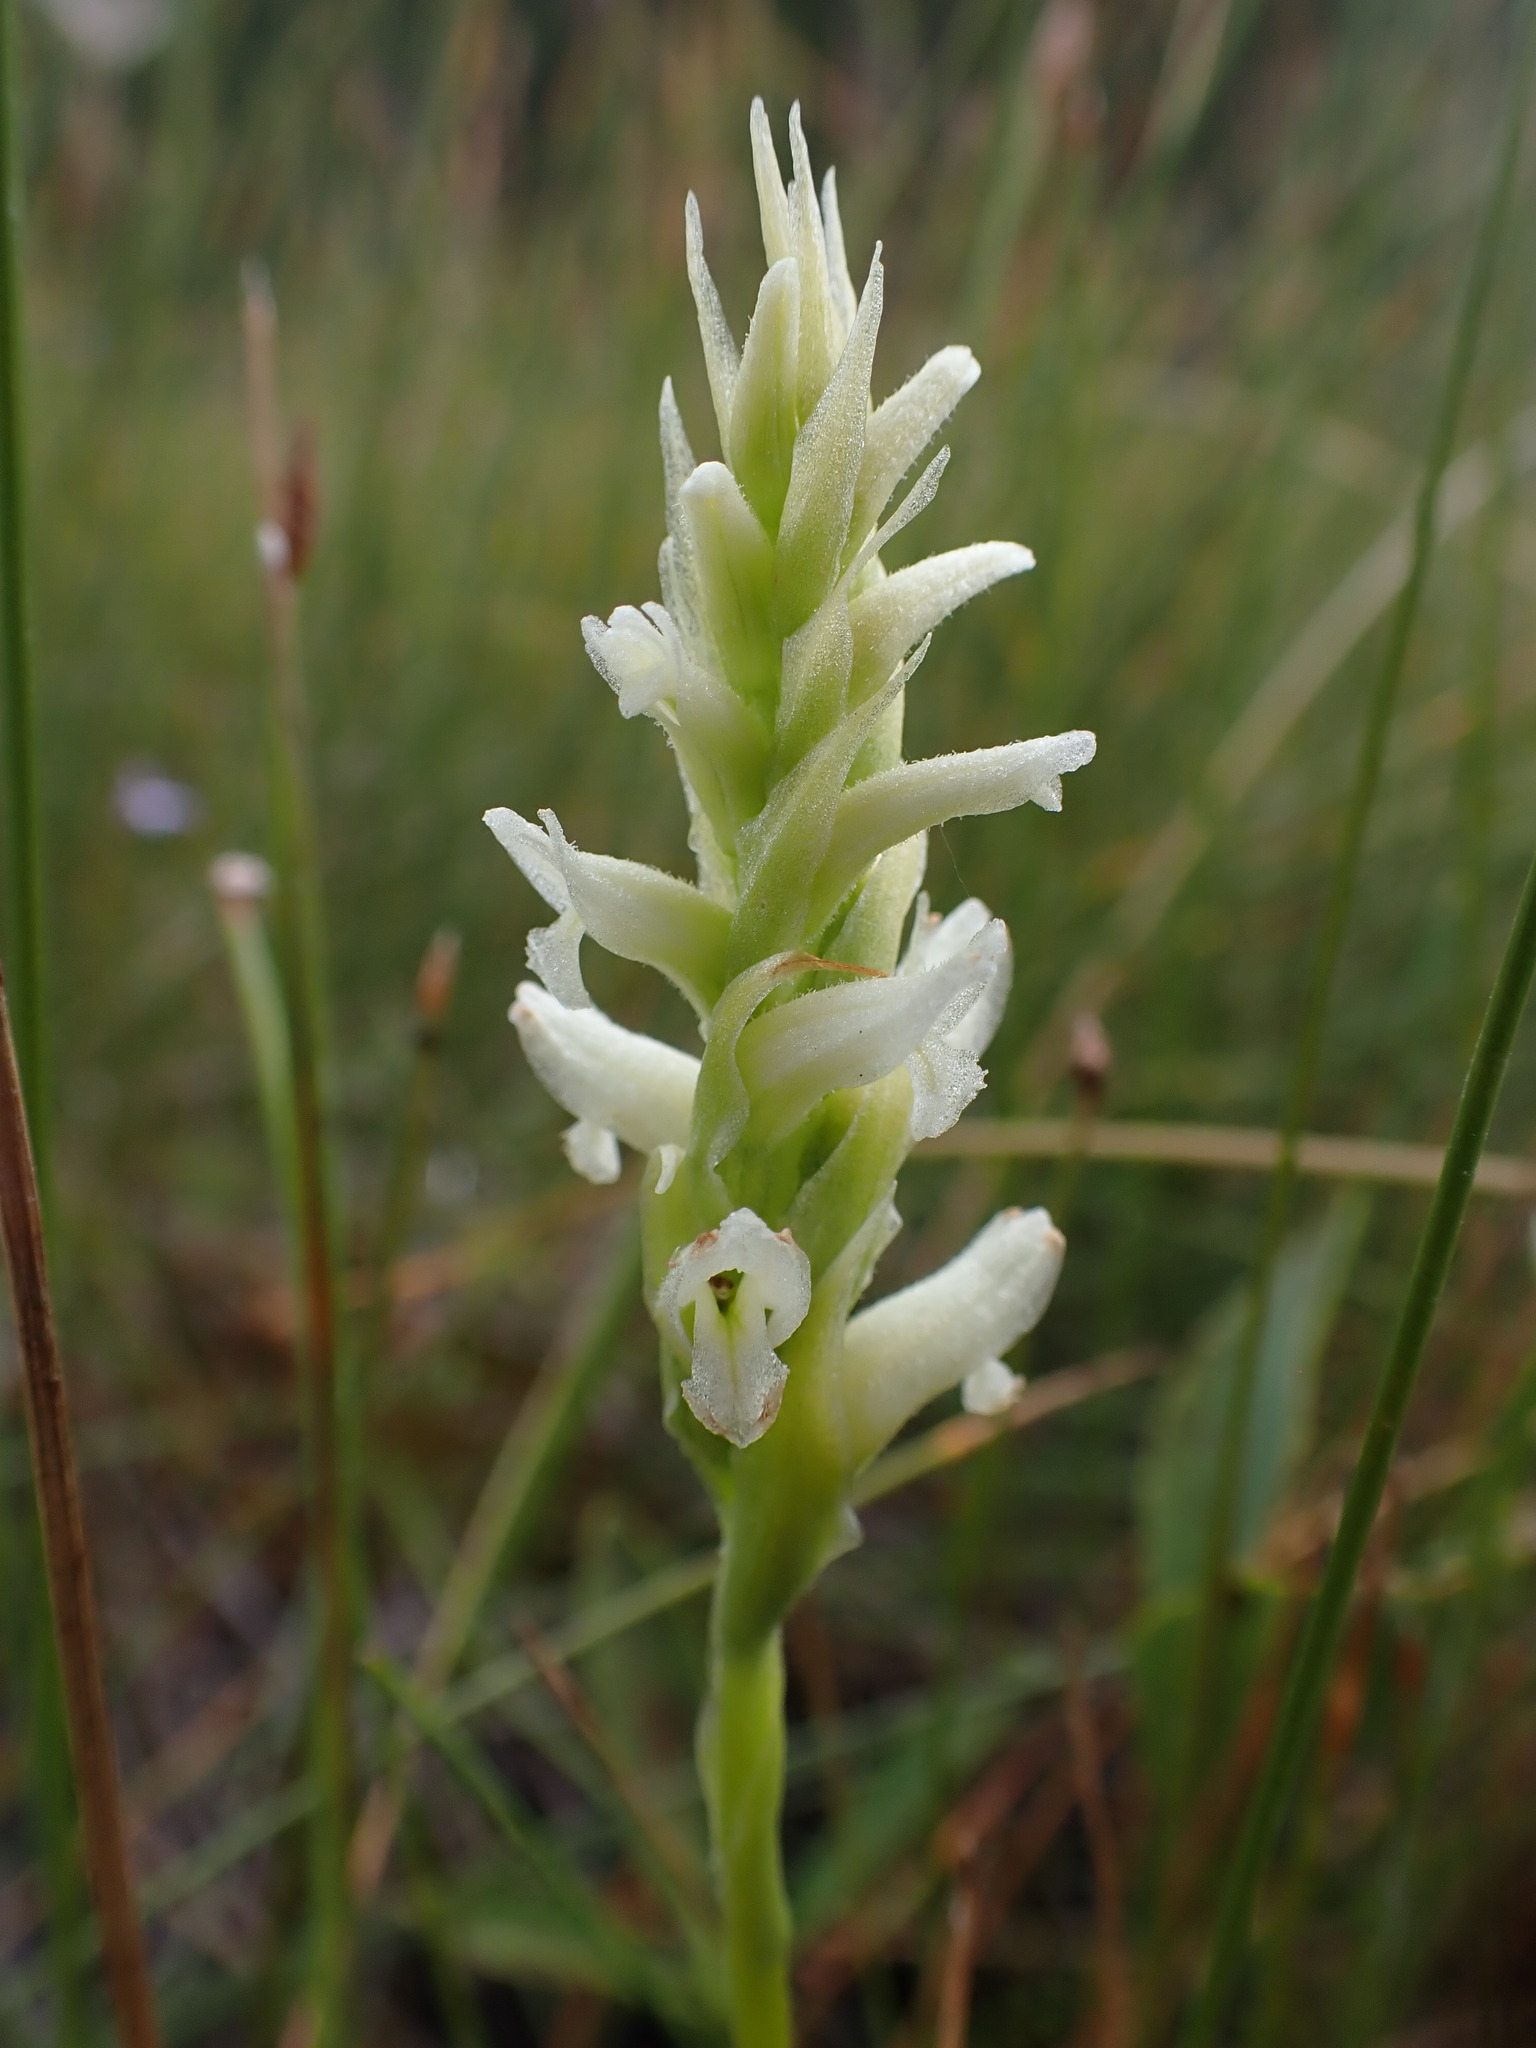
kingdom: Plantae
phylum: Tracheophyta
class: Liliopsida
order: Asparagales
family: Orchidaceae
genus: Spiranthes
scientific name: Spiranthes romanzoffiana
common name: Irish lady's-tresses
